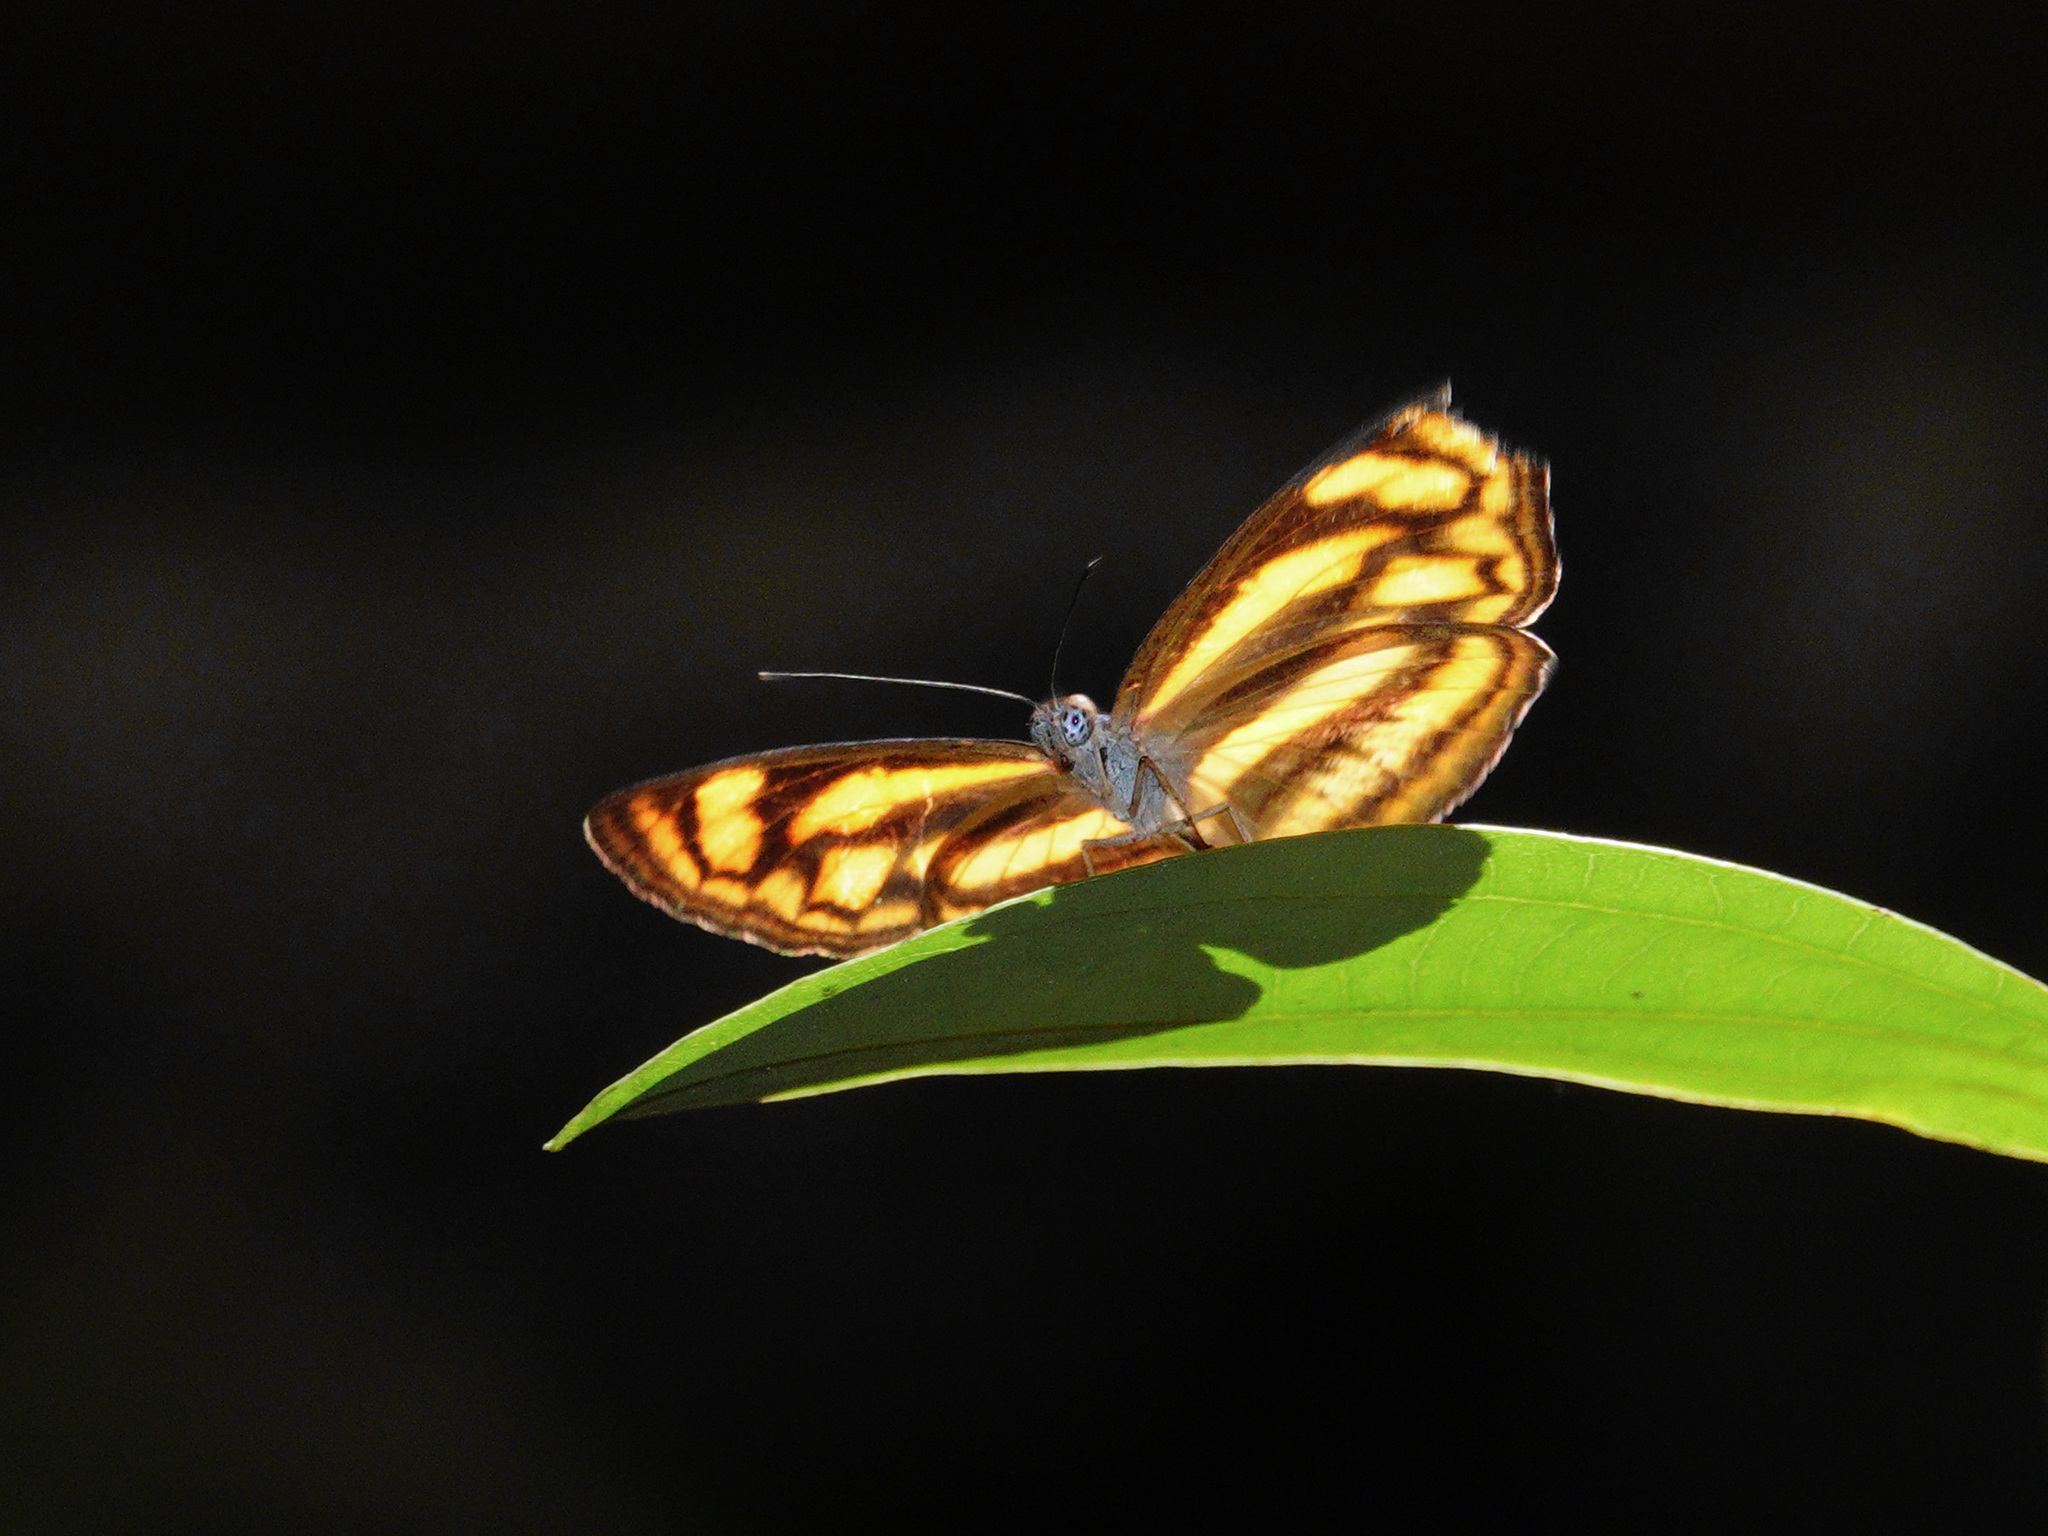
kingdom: Animalia
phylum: Arthropoda
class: Insecta
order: Lepidoptera
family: Nymphalidae
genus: Lasippa
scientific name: Lasippa tiga
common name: Malayan lascar
